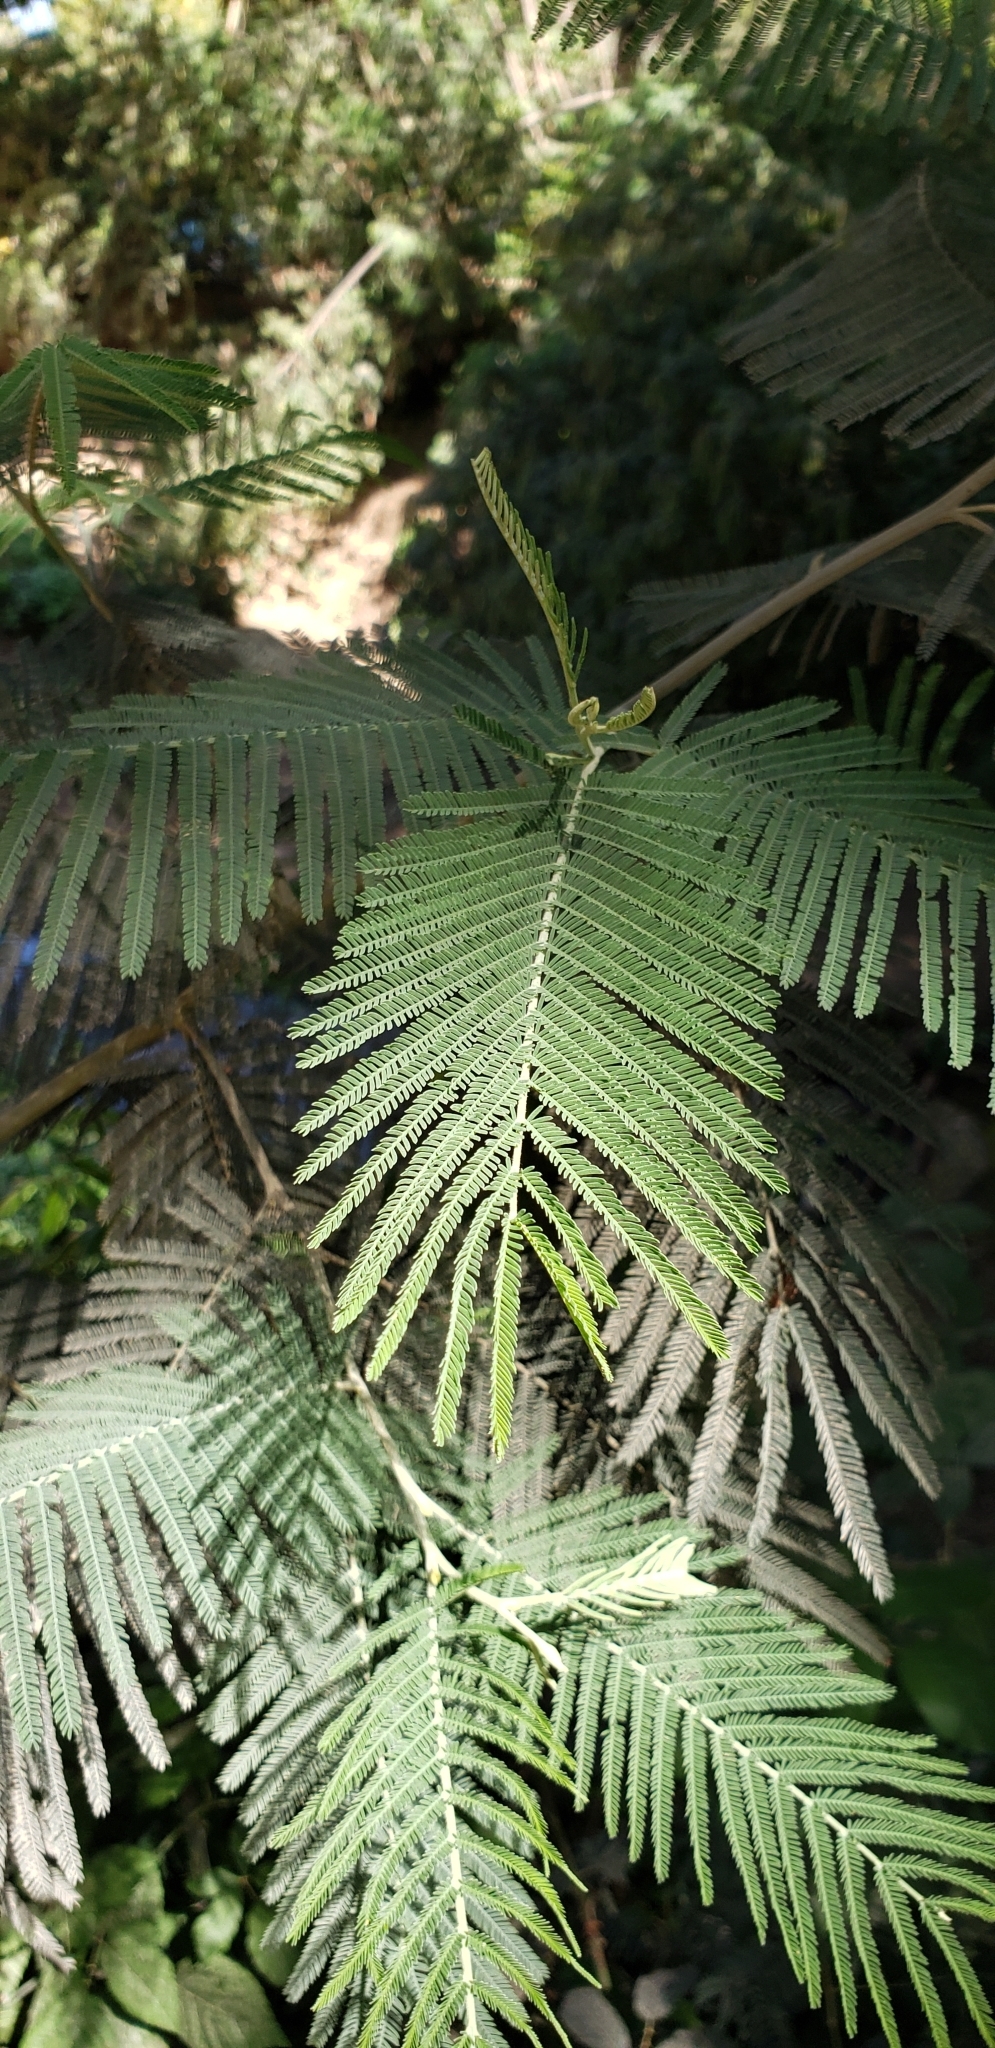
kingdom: Plantae
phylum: Tracheophyta
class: Magnoliopsida
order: Fabales
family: Fabaceae
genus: Acacia
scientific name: Acacia dealbata
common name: Silver wattle
